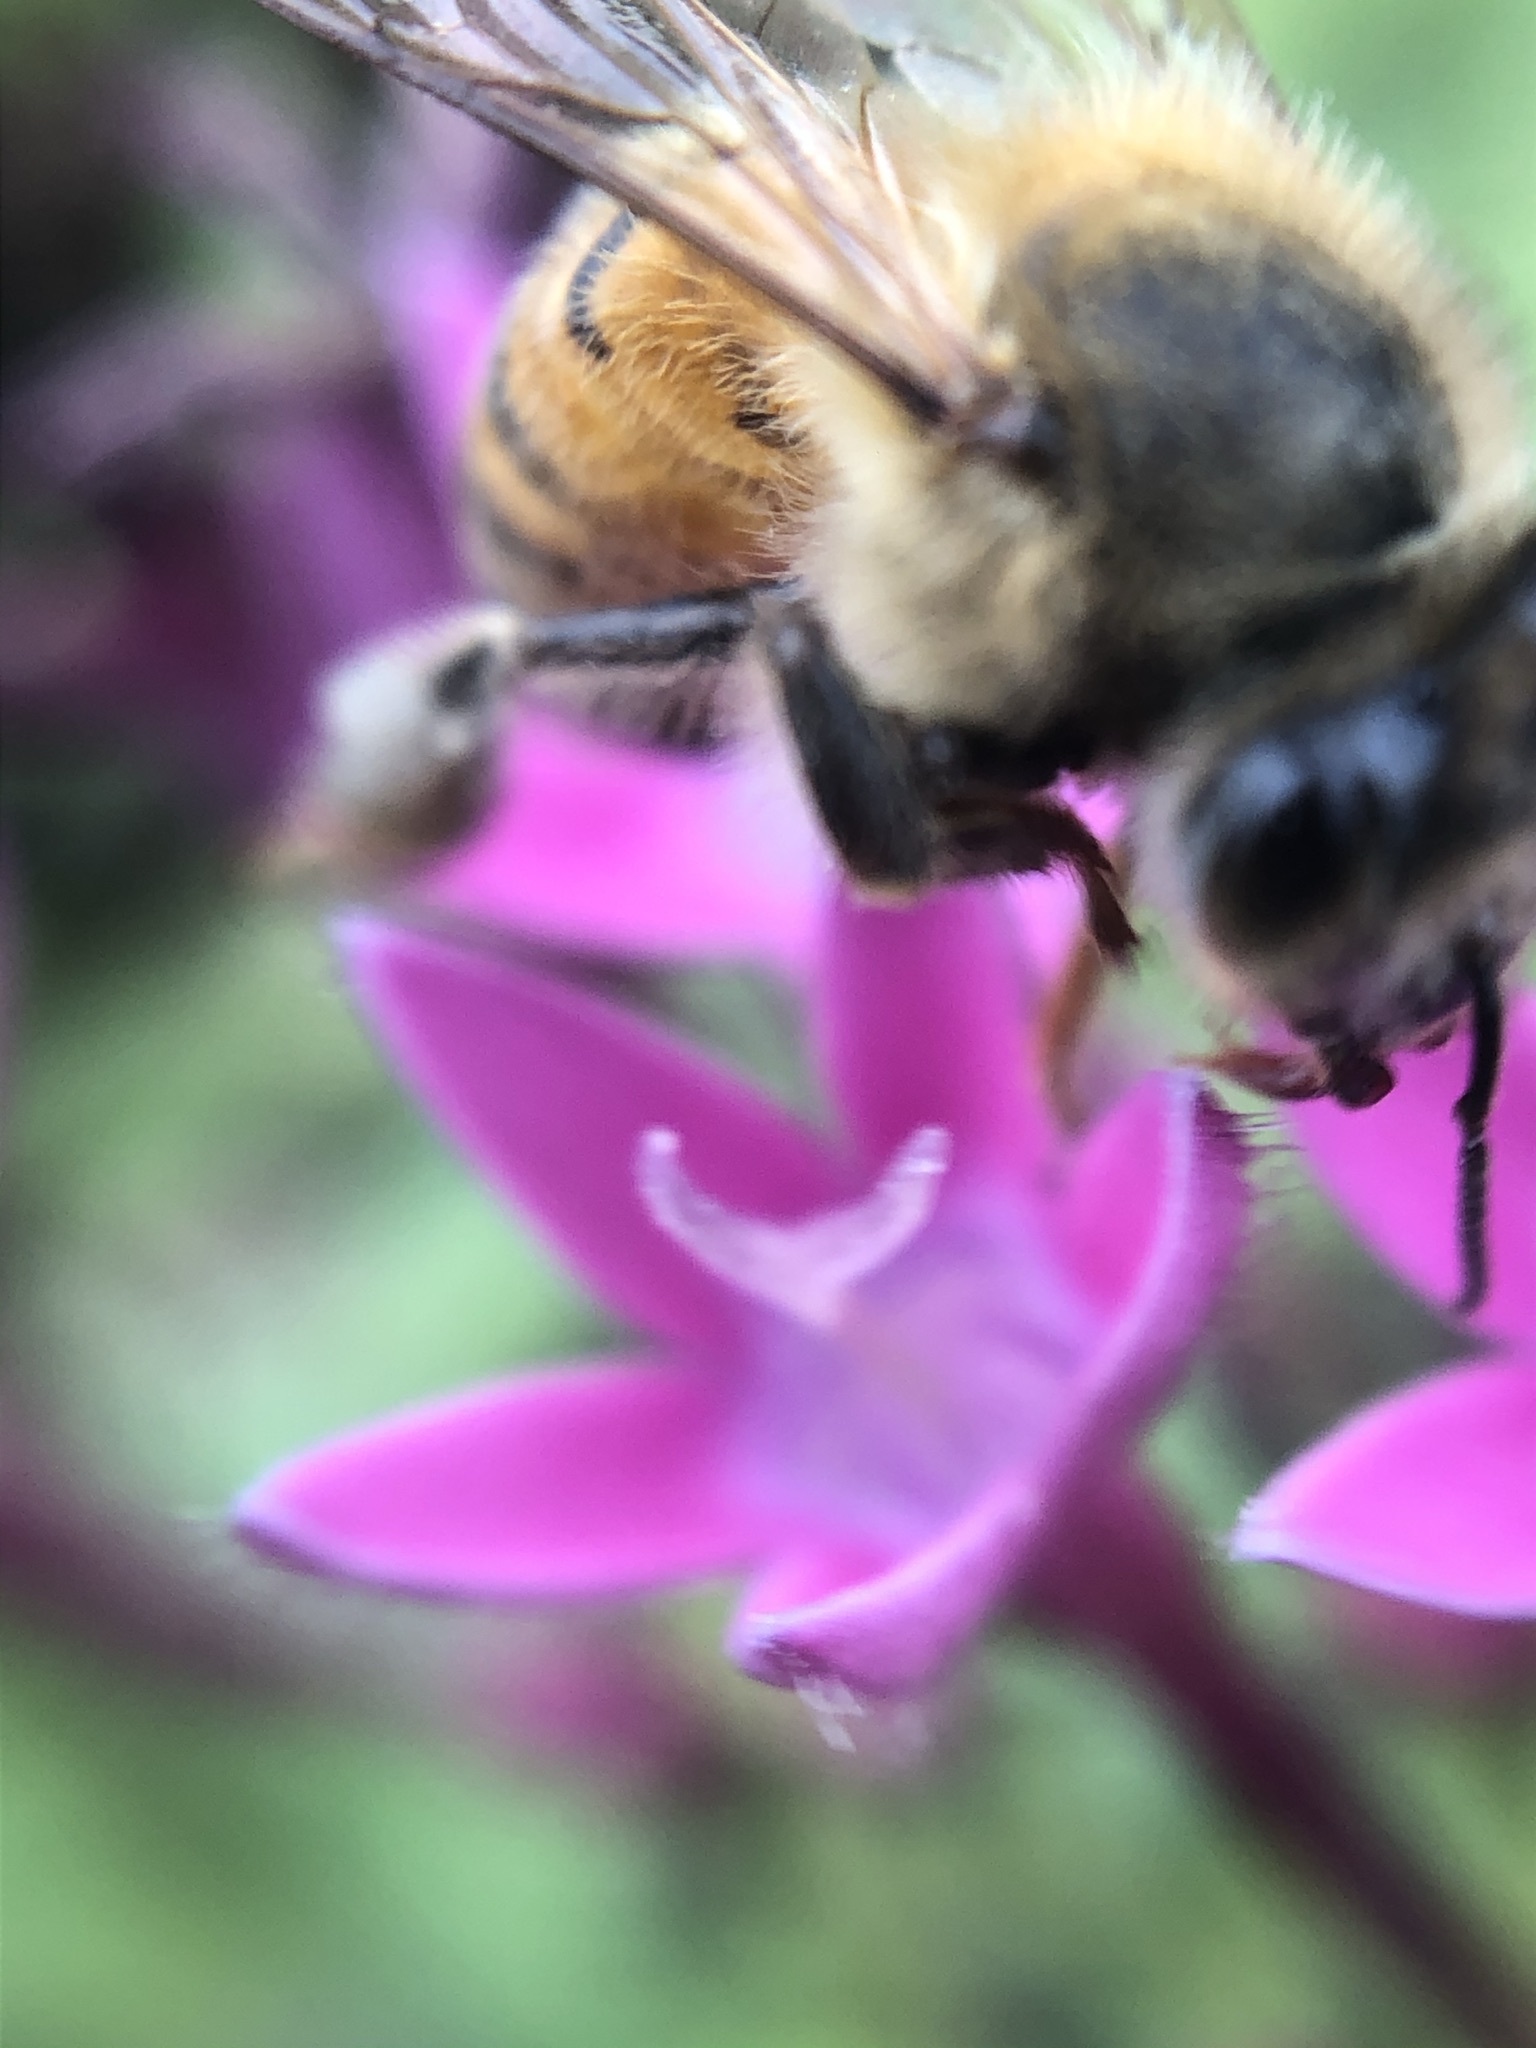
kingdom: Animalia
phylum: Arthropoda
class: Insecta
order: Hymenoptera
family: Apidae
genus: Apis
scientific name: Apis mellifera
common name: Honey bee
